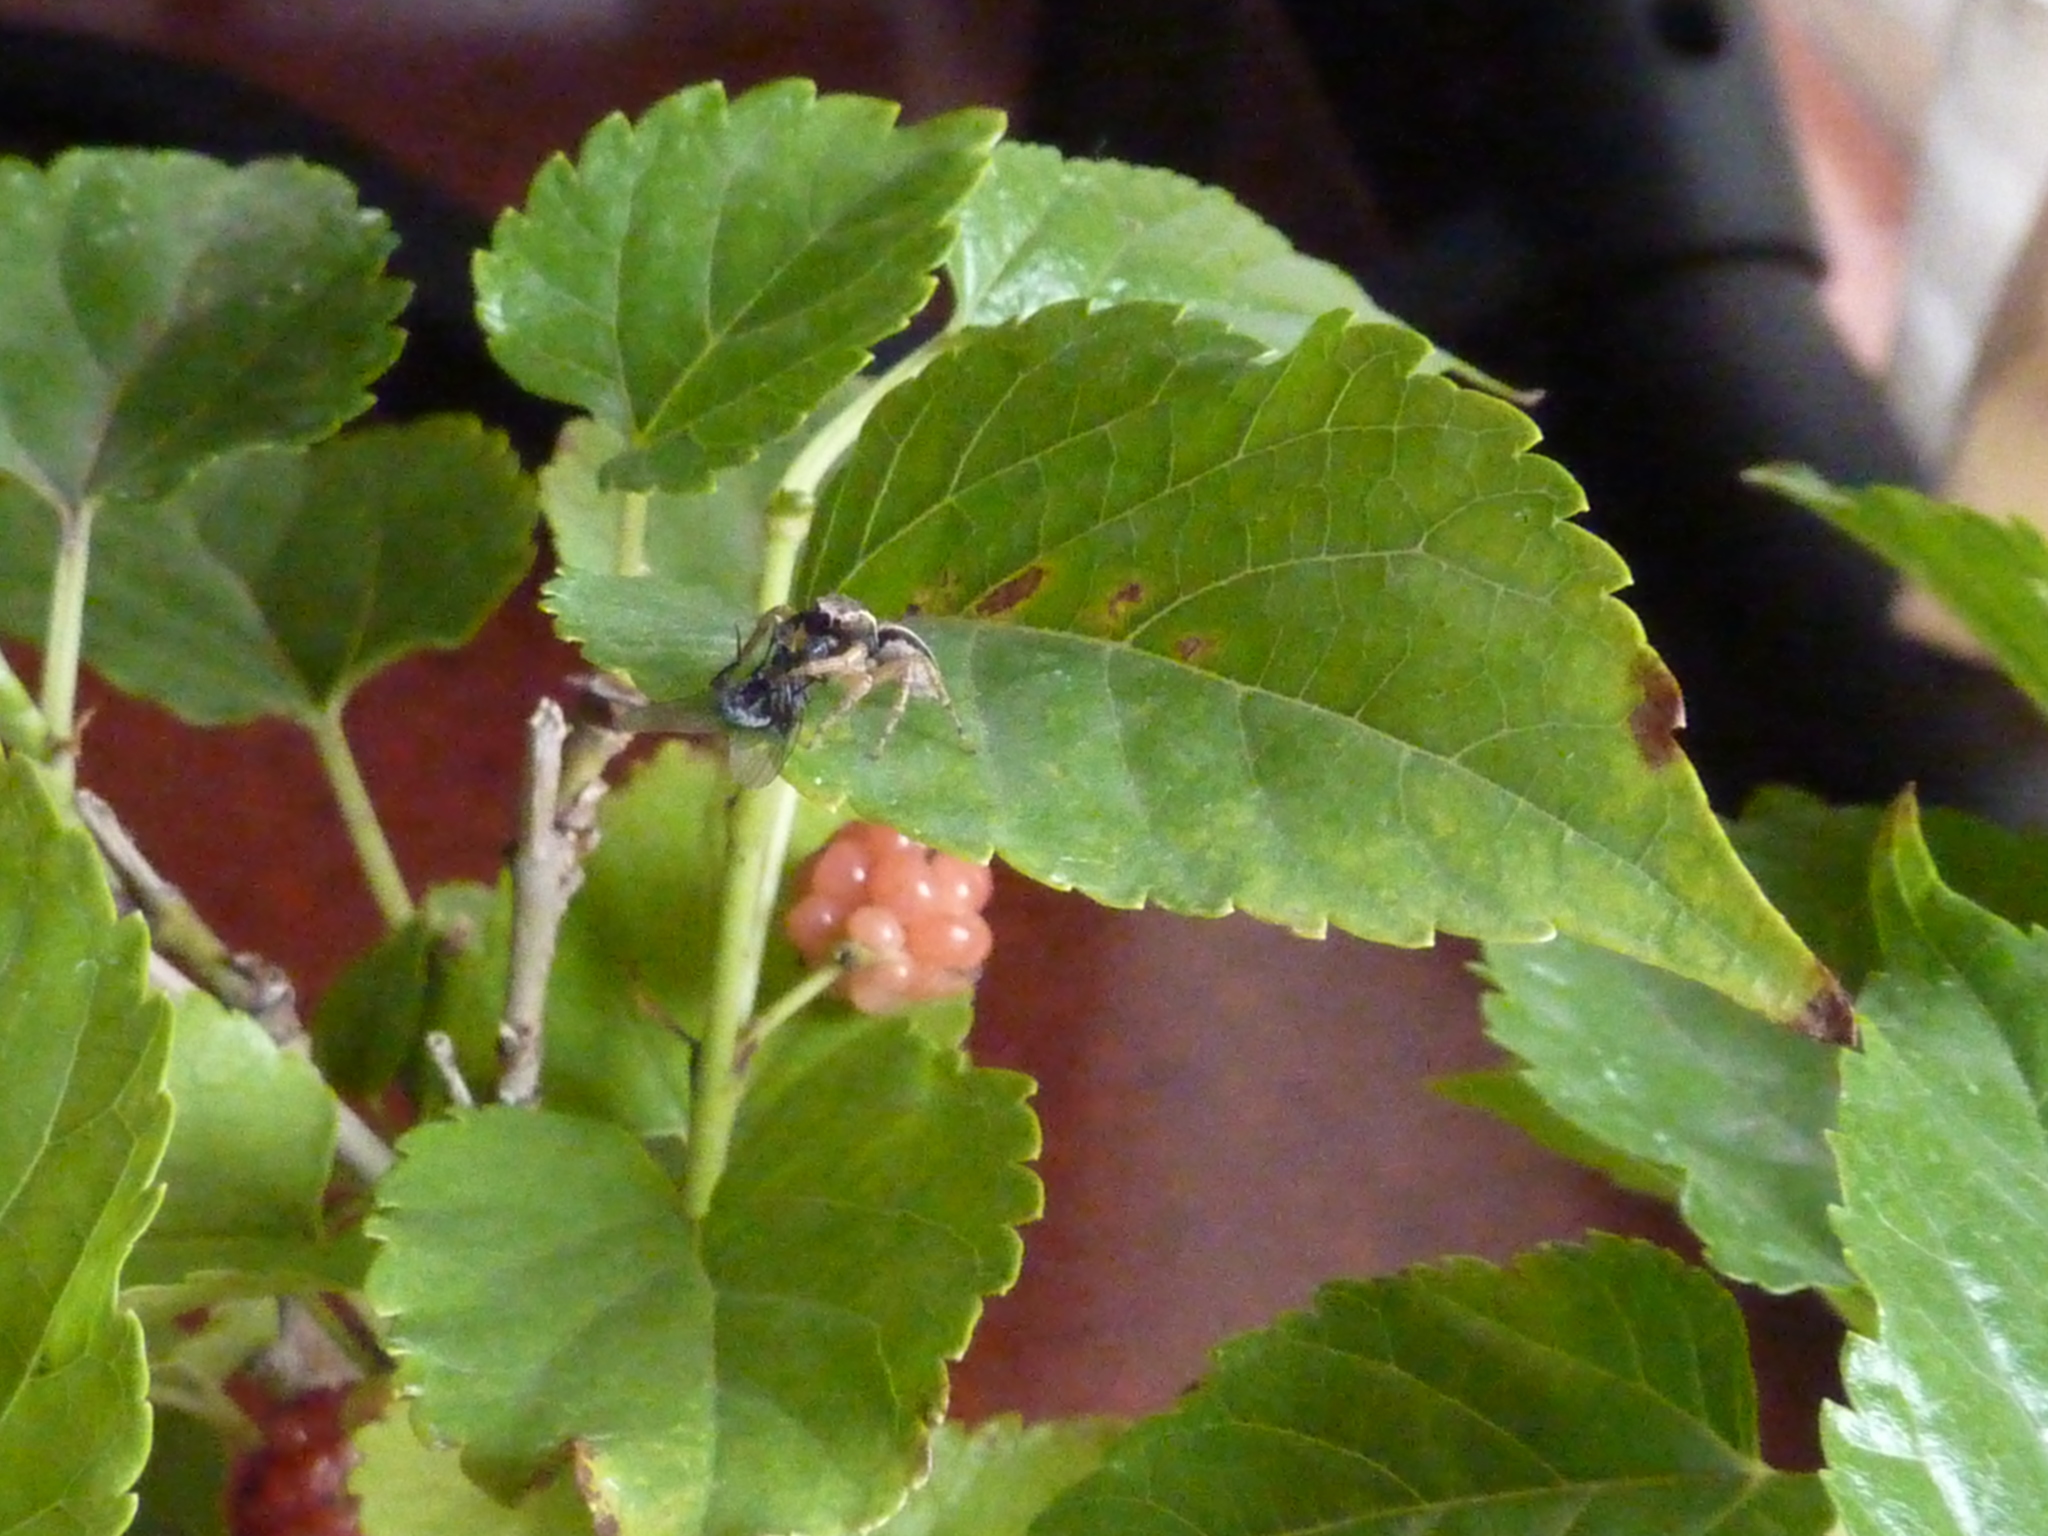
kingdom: Animalia
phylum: Arthropoda
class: Arachnida
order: Araneae
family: Salticidae
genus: Aphirape
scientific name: Aphirape
